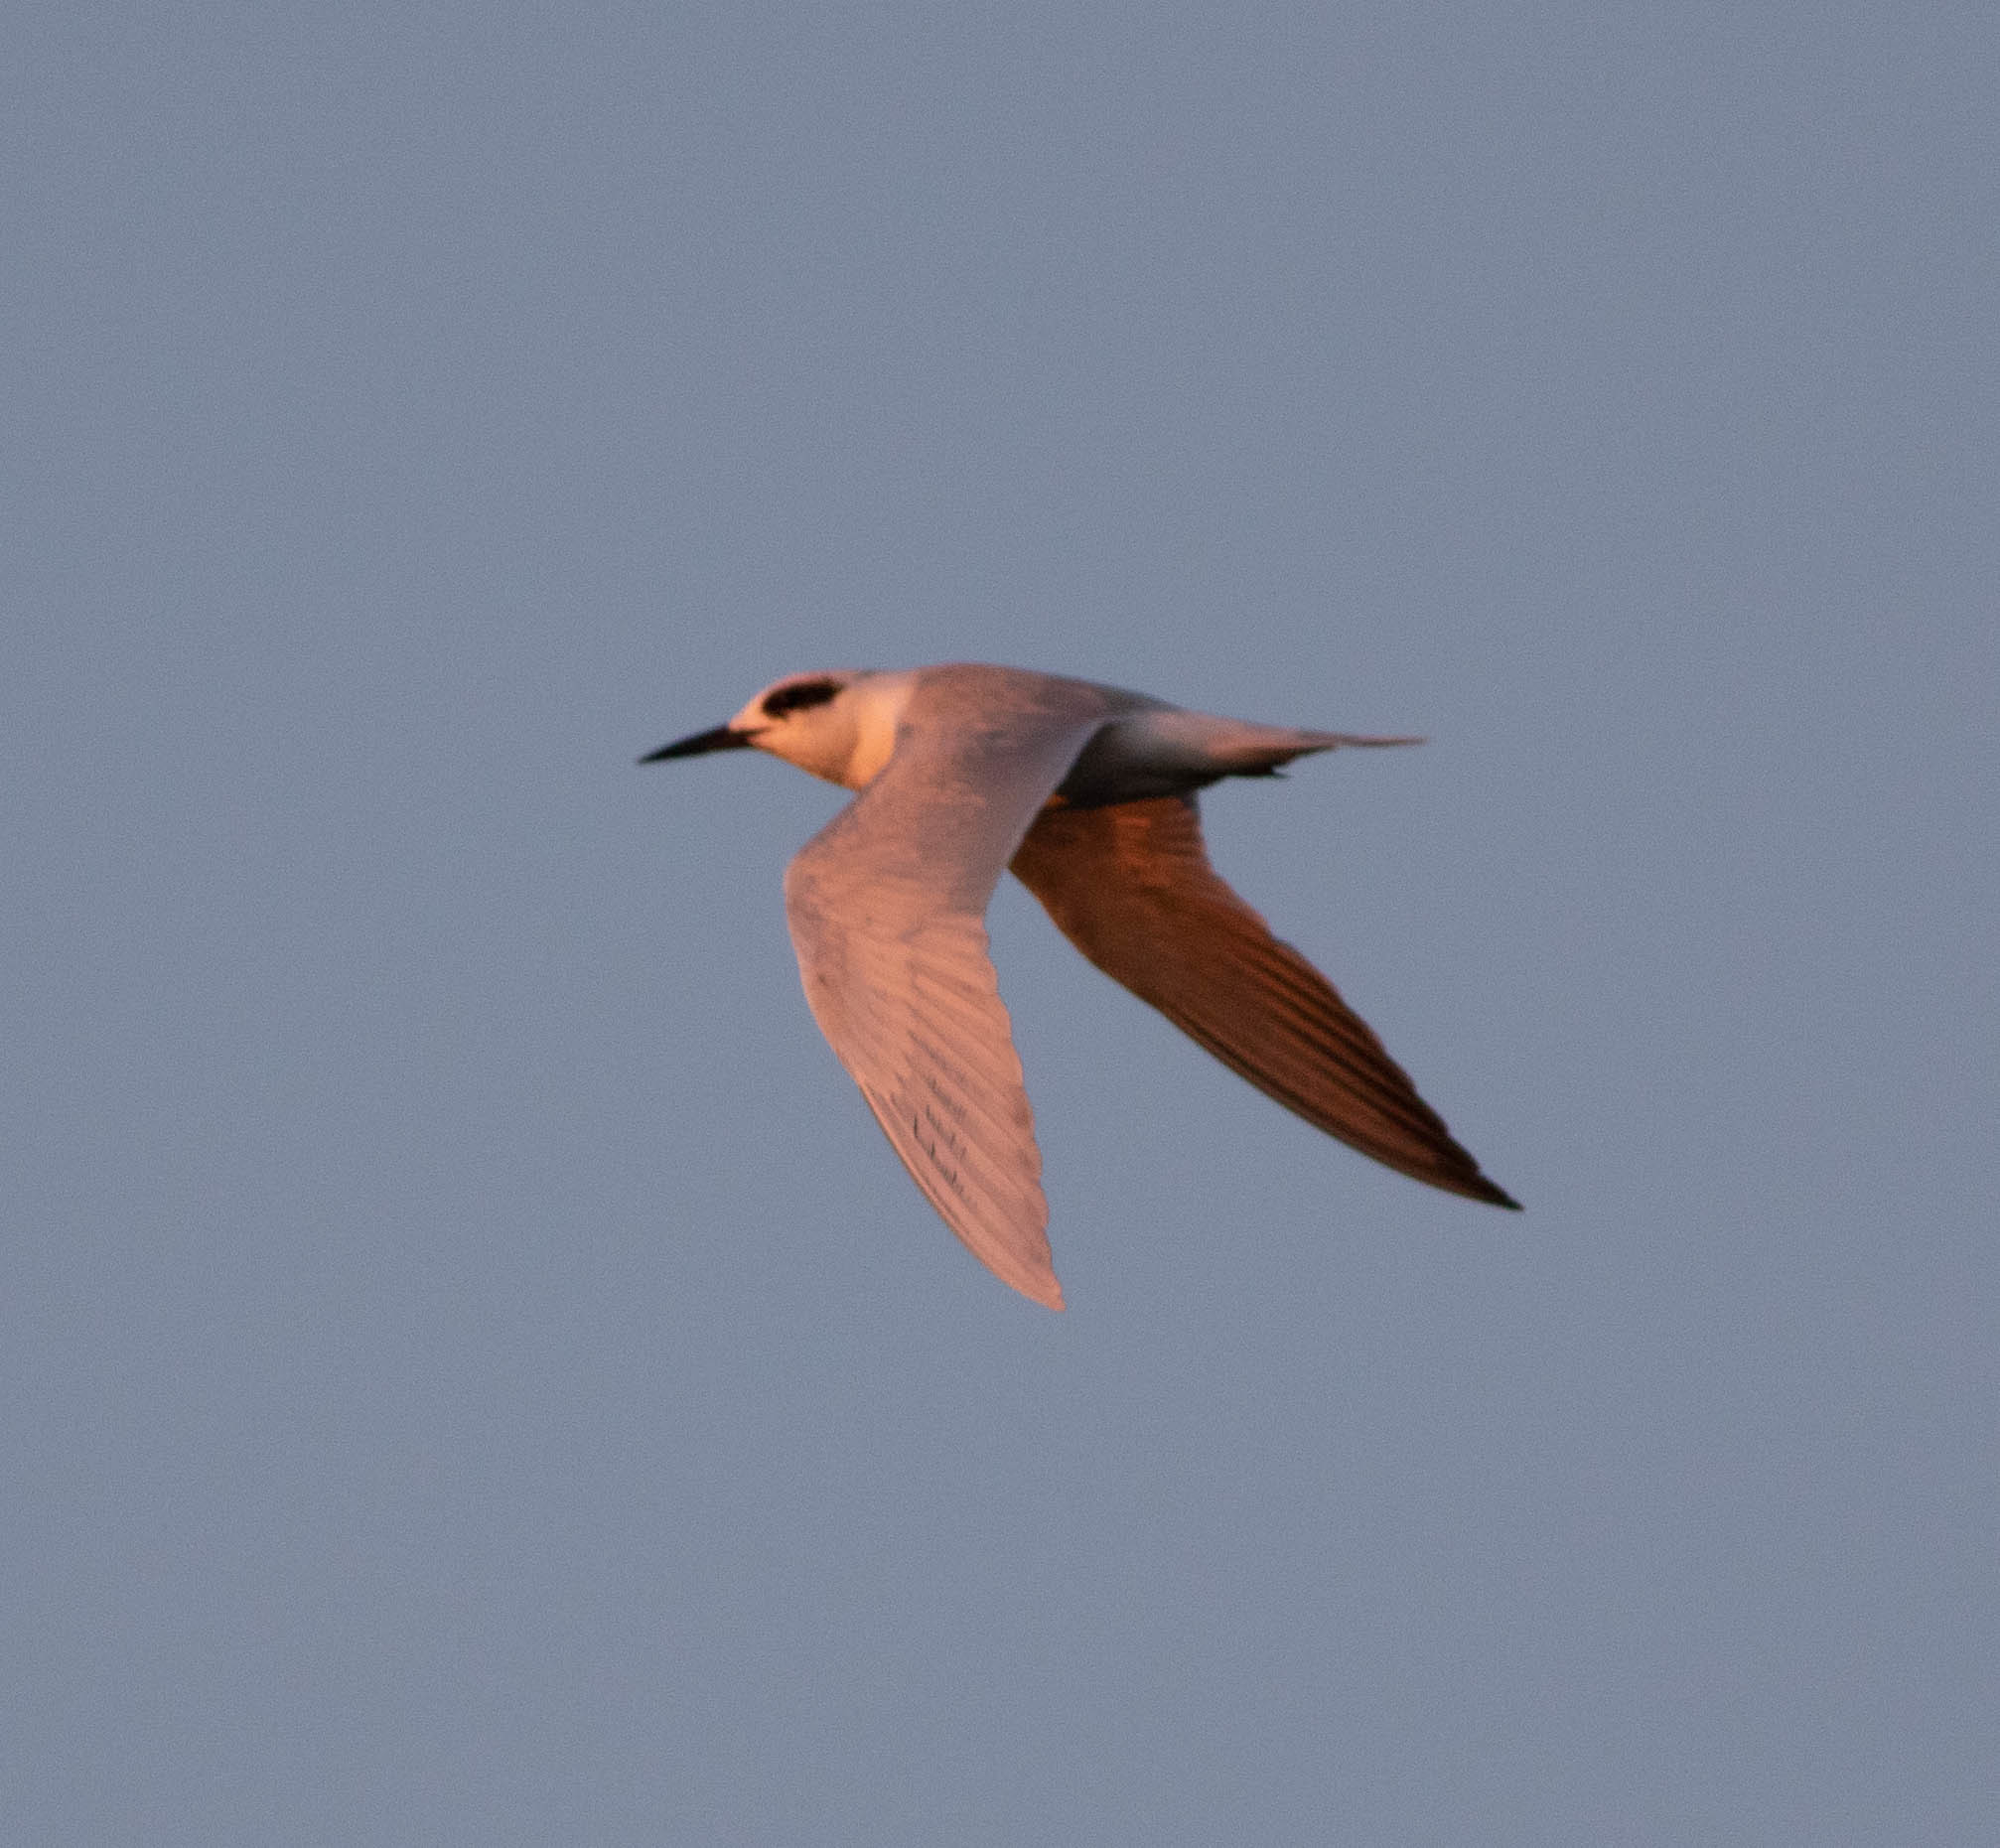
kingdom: Animalia
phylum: Chordata
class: Aves
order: Charadriiformes
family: Laridae
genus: Sterna
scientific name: Sterna forsteri
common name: Forster's tern
